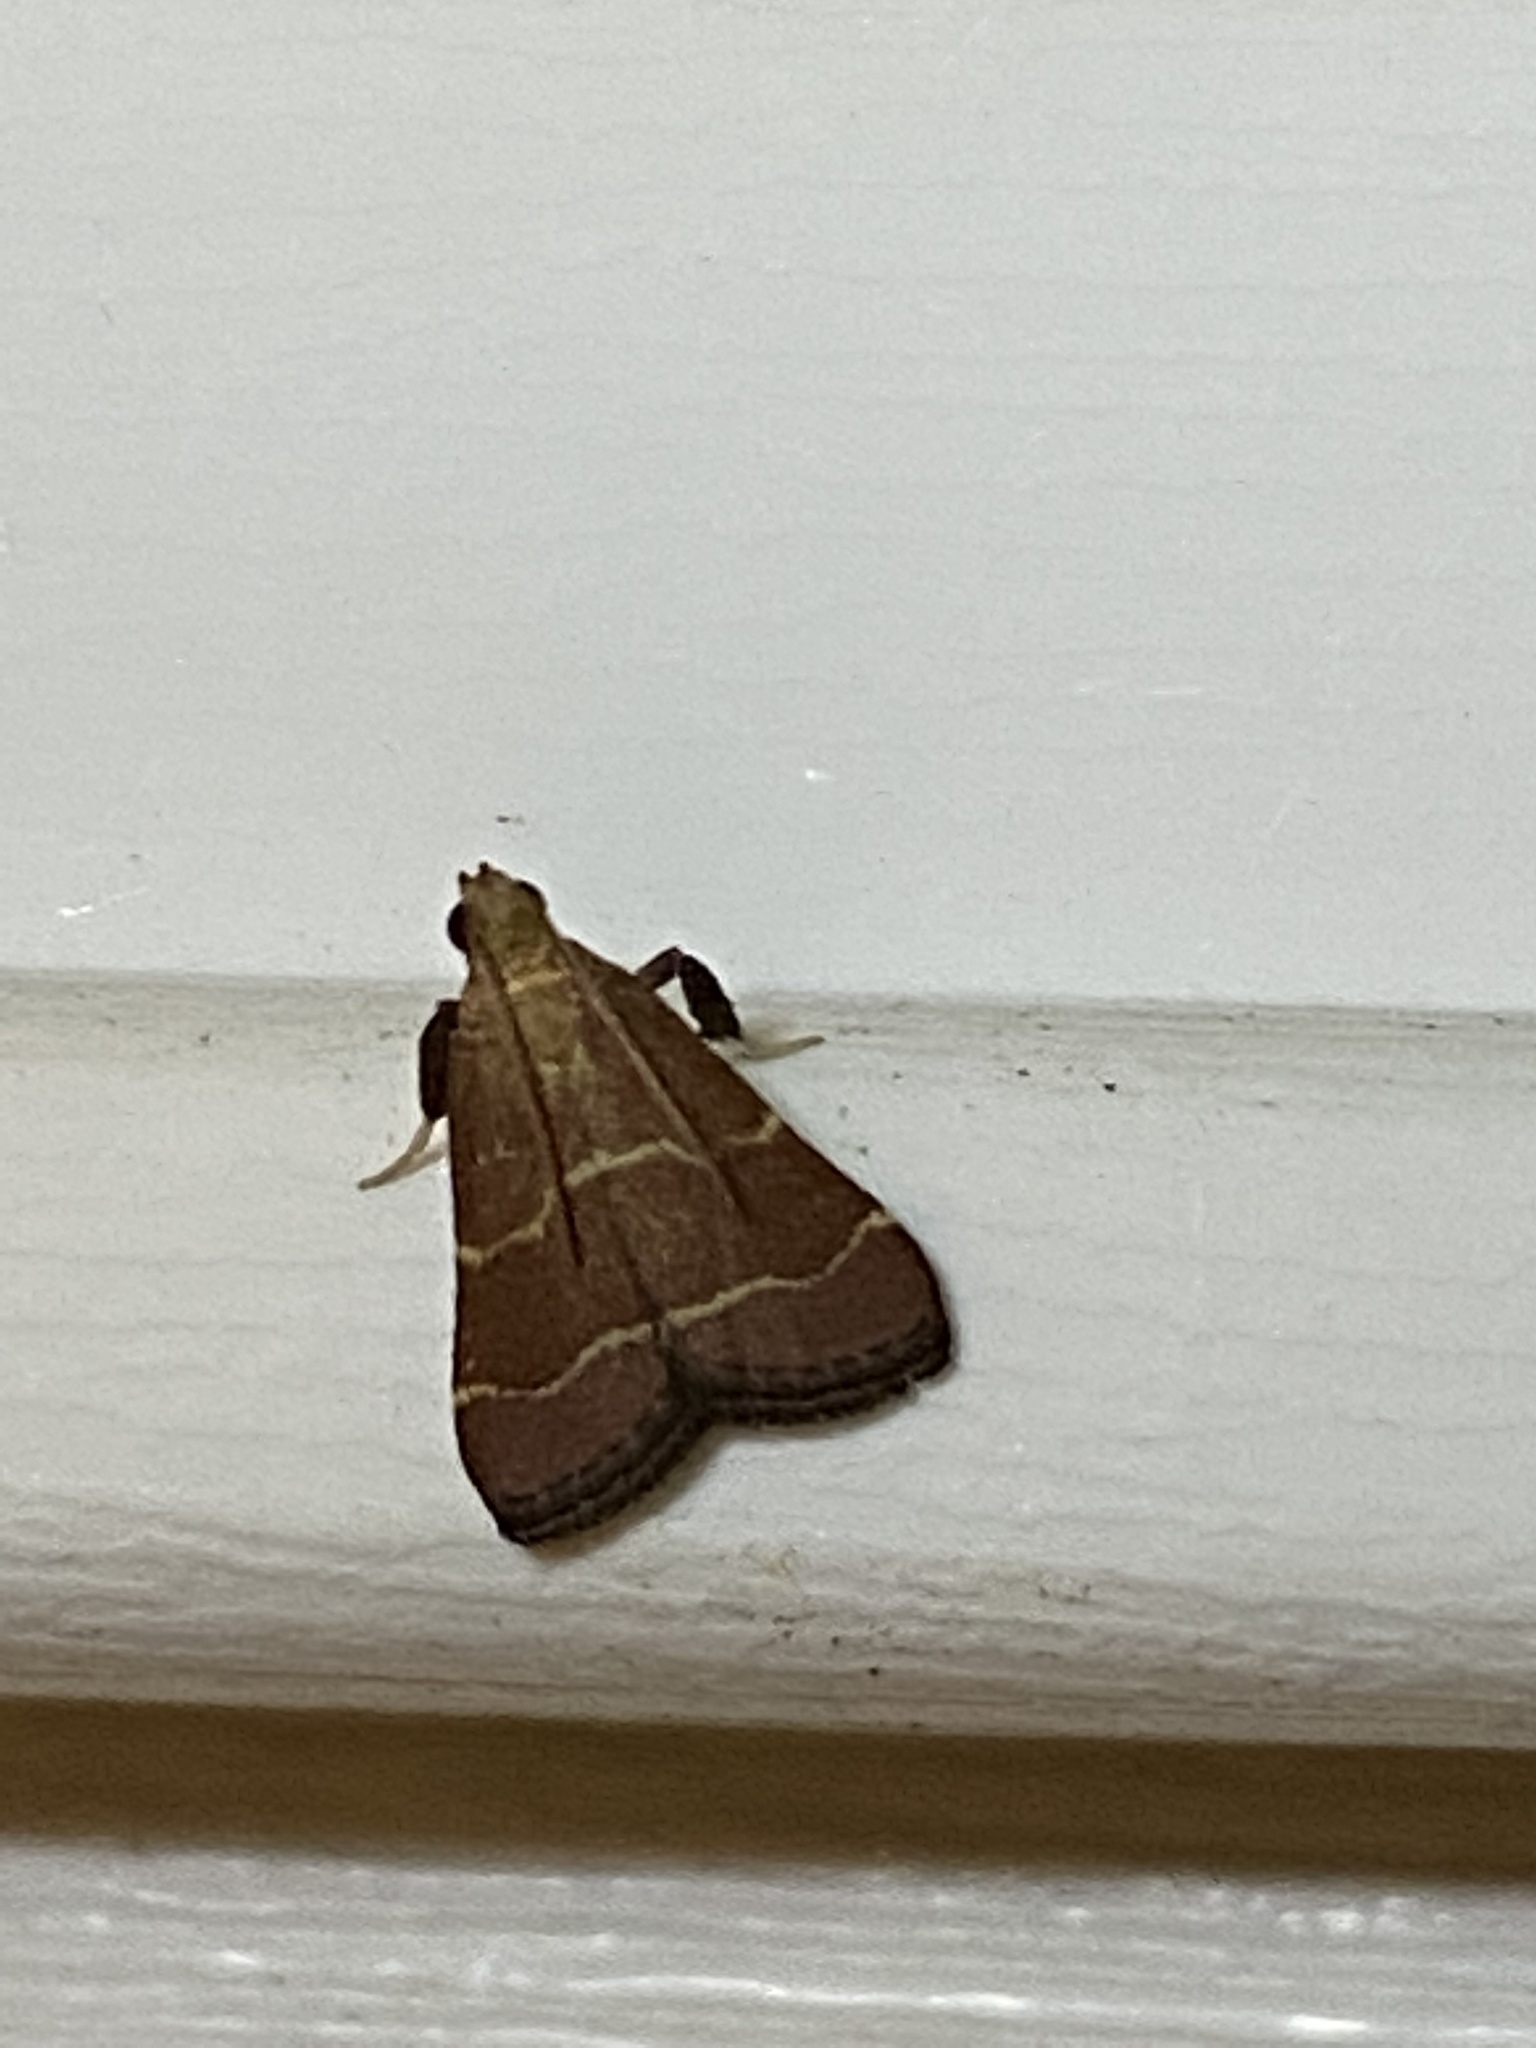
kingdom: Animalia
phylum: Arthropoda
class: Insecta
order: Lepidoptera
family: Pyralidae
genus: Arta
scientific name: Arta statalis
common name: Posturing arta moth
